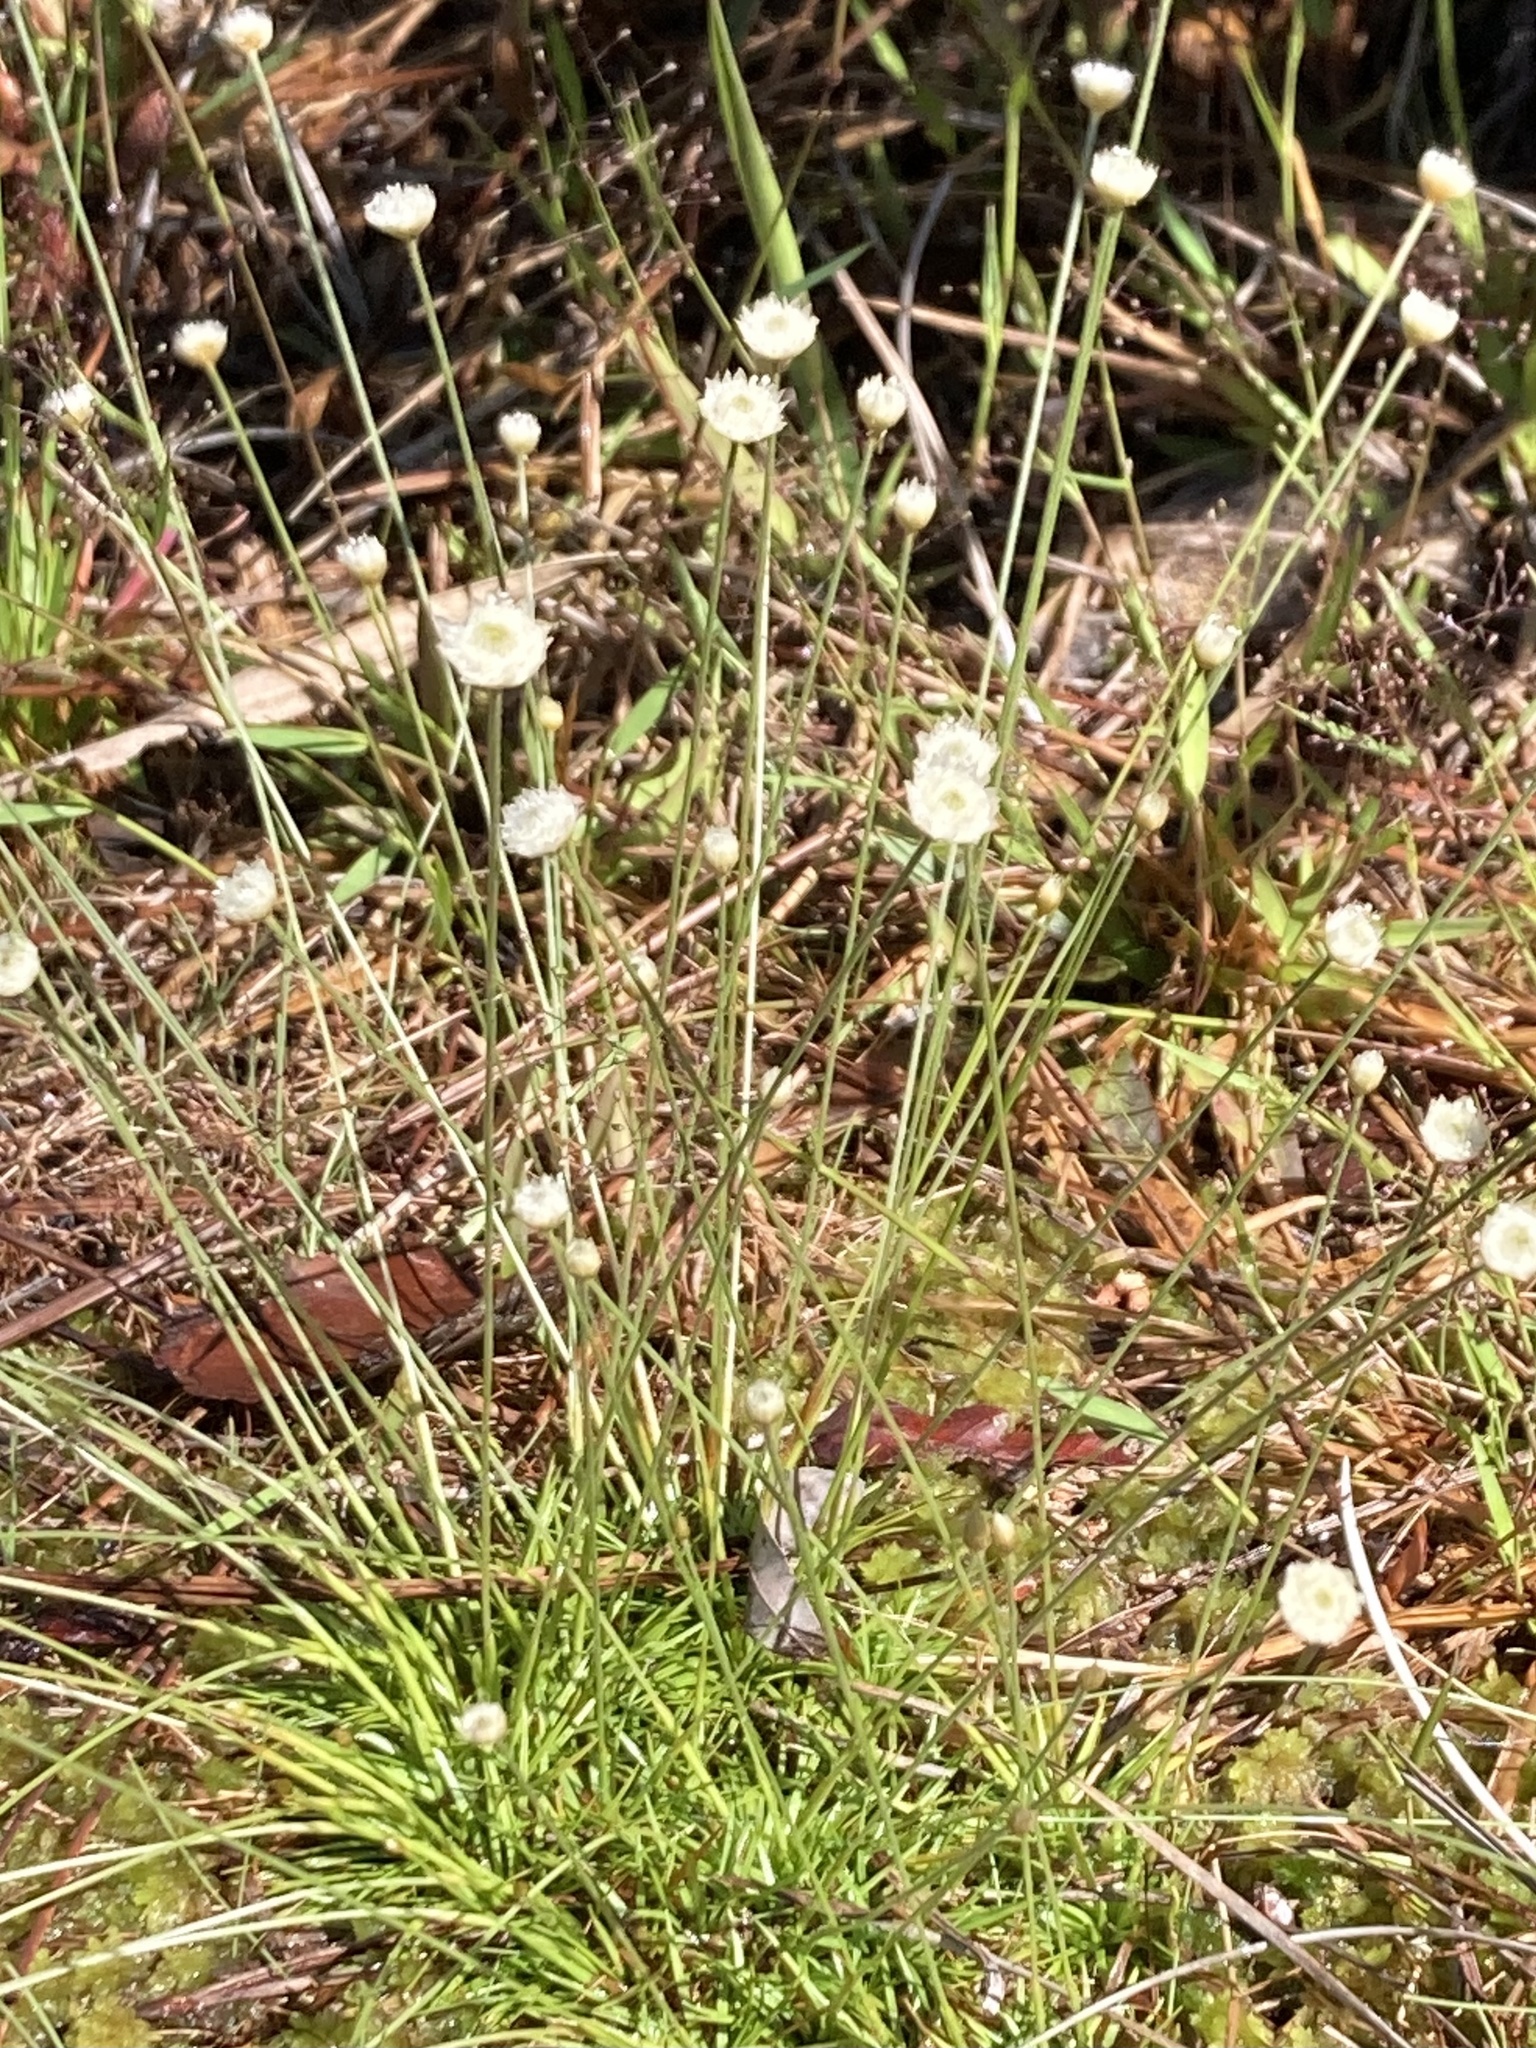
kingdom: Plantae
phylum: Tracheophyta
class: Liliopsida
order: Poales
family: Eriocaulaceae
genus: Syngonanthus
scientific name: Syngonanthus flavidulus
